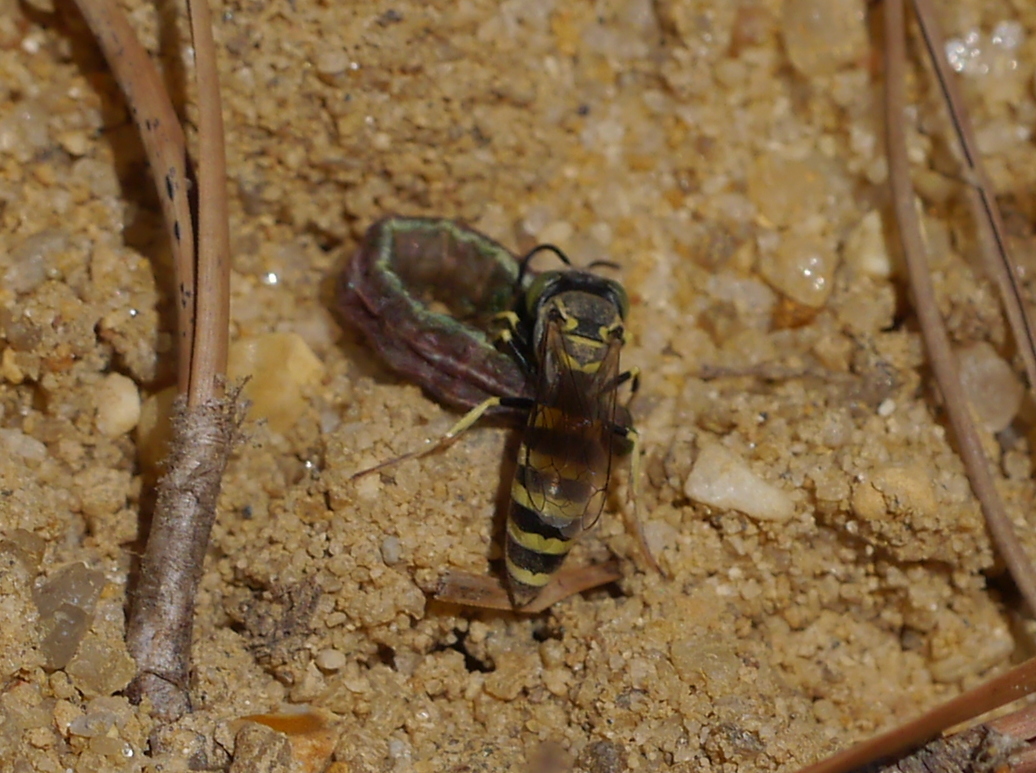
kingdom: Animalia
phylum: Arthropoda
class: Insecta
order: Hymenoptera
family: Crabronidae
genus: Microbembex
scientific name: Microbembex monodonta
